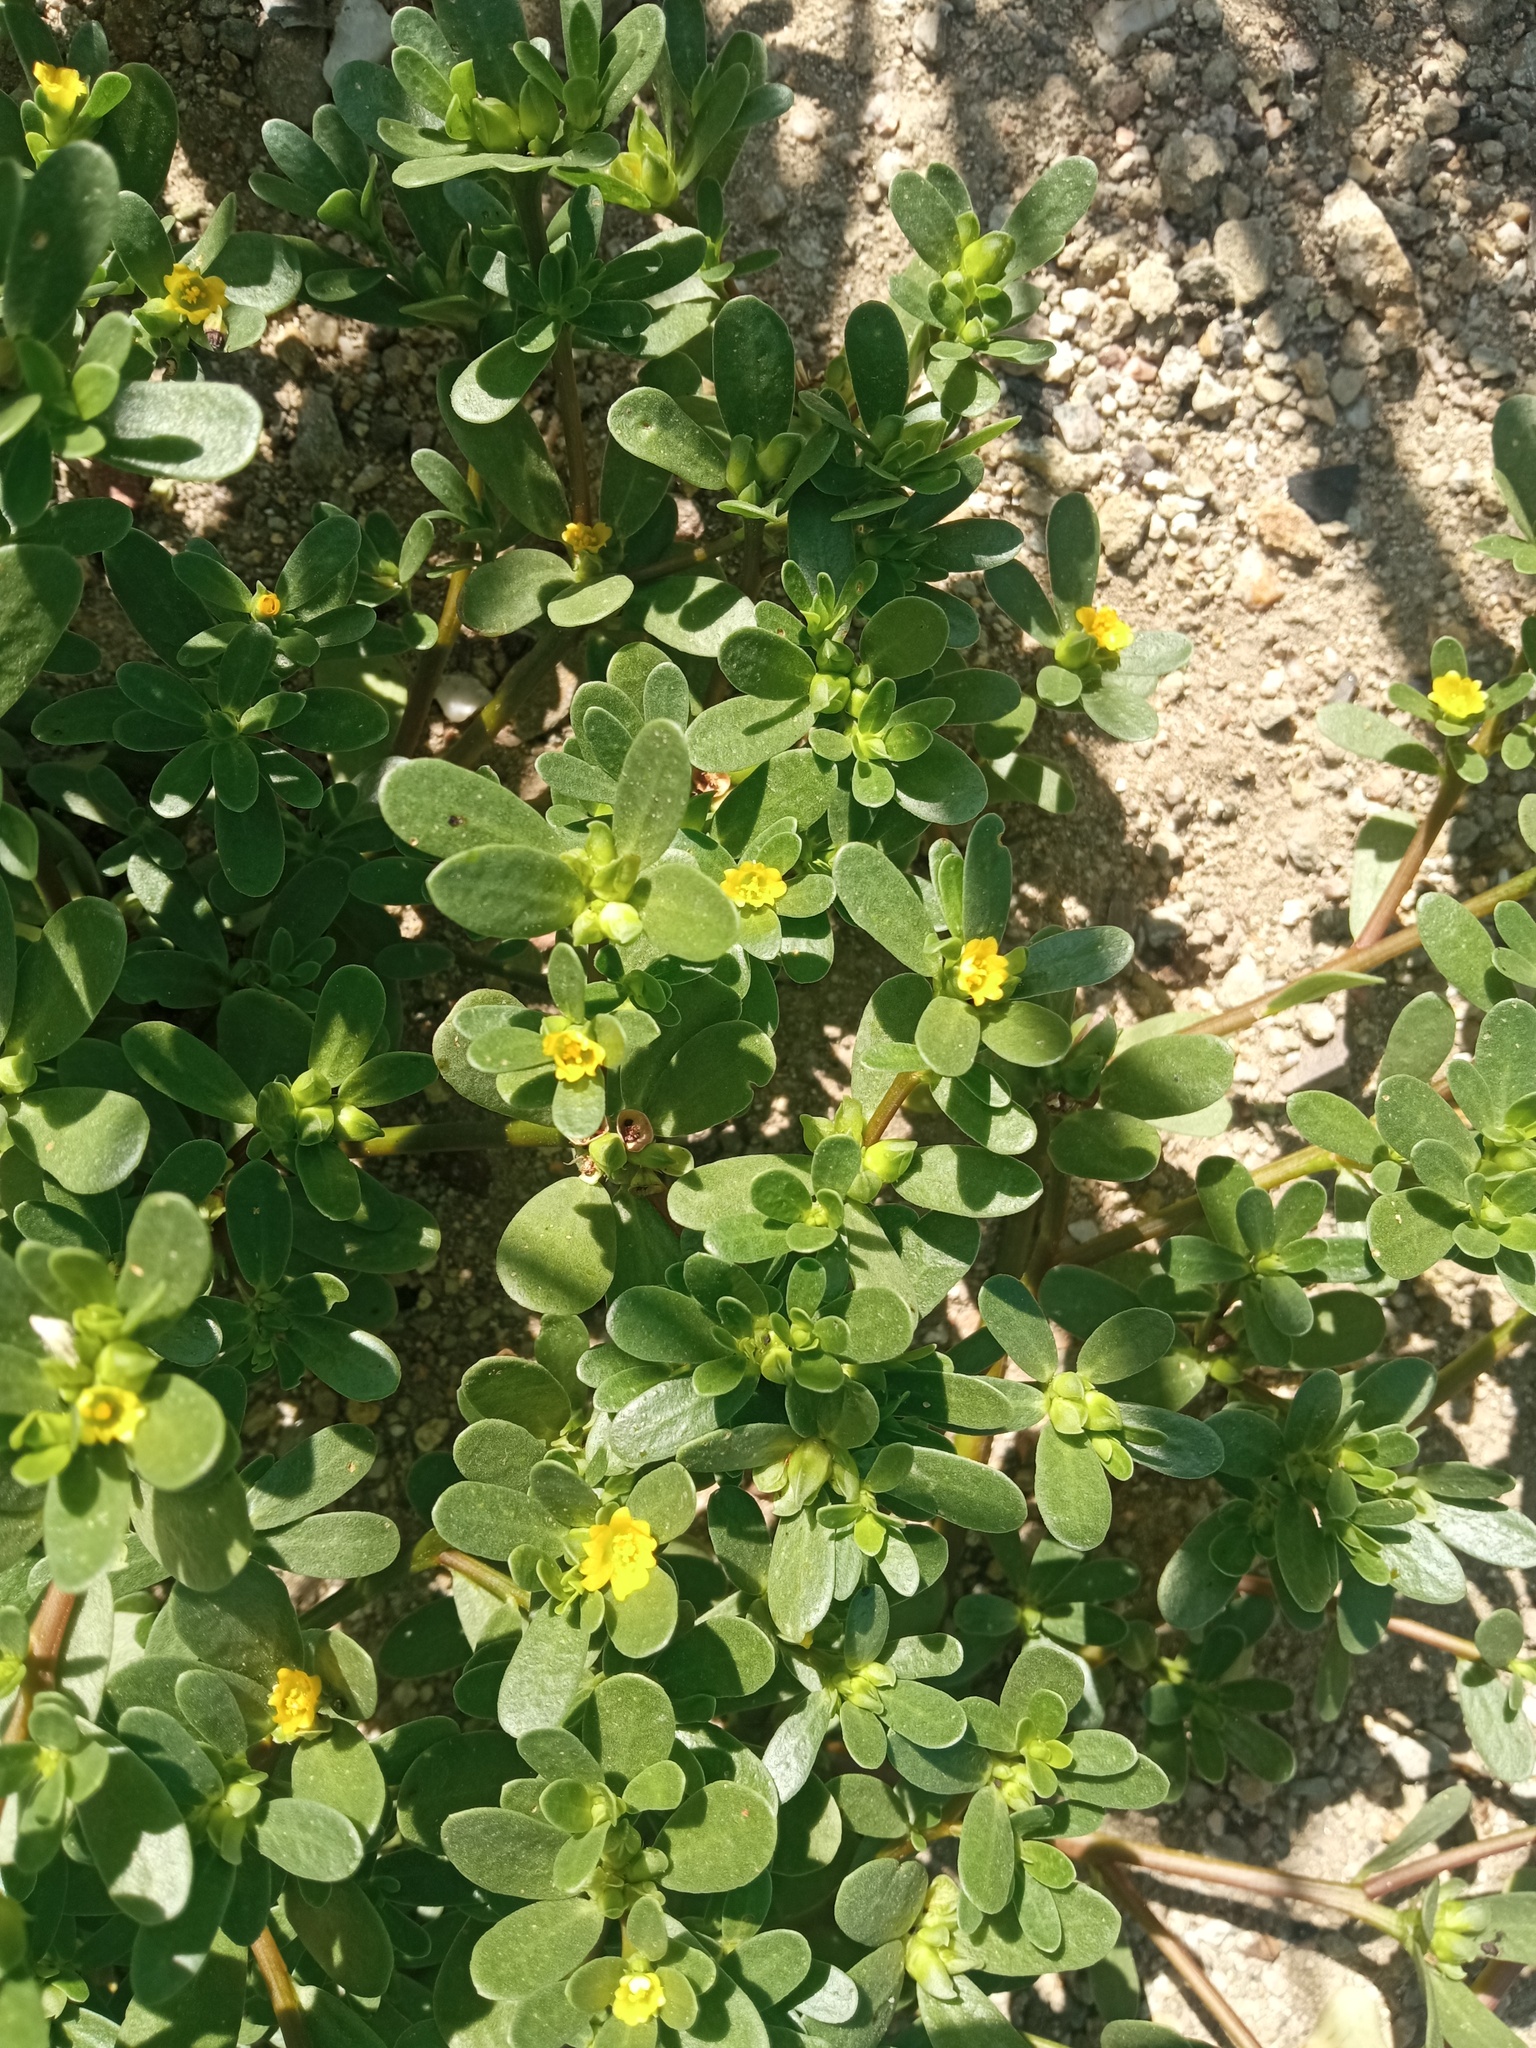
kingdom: Plantae
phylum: Tracheophyta
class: Magnoliopsida
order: Caryophyllales
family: Portulacaceae
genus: Portulaca
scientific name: Portulaca oleracea
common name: Common purslane
